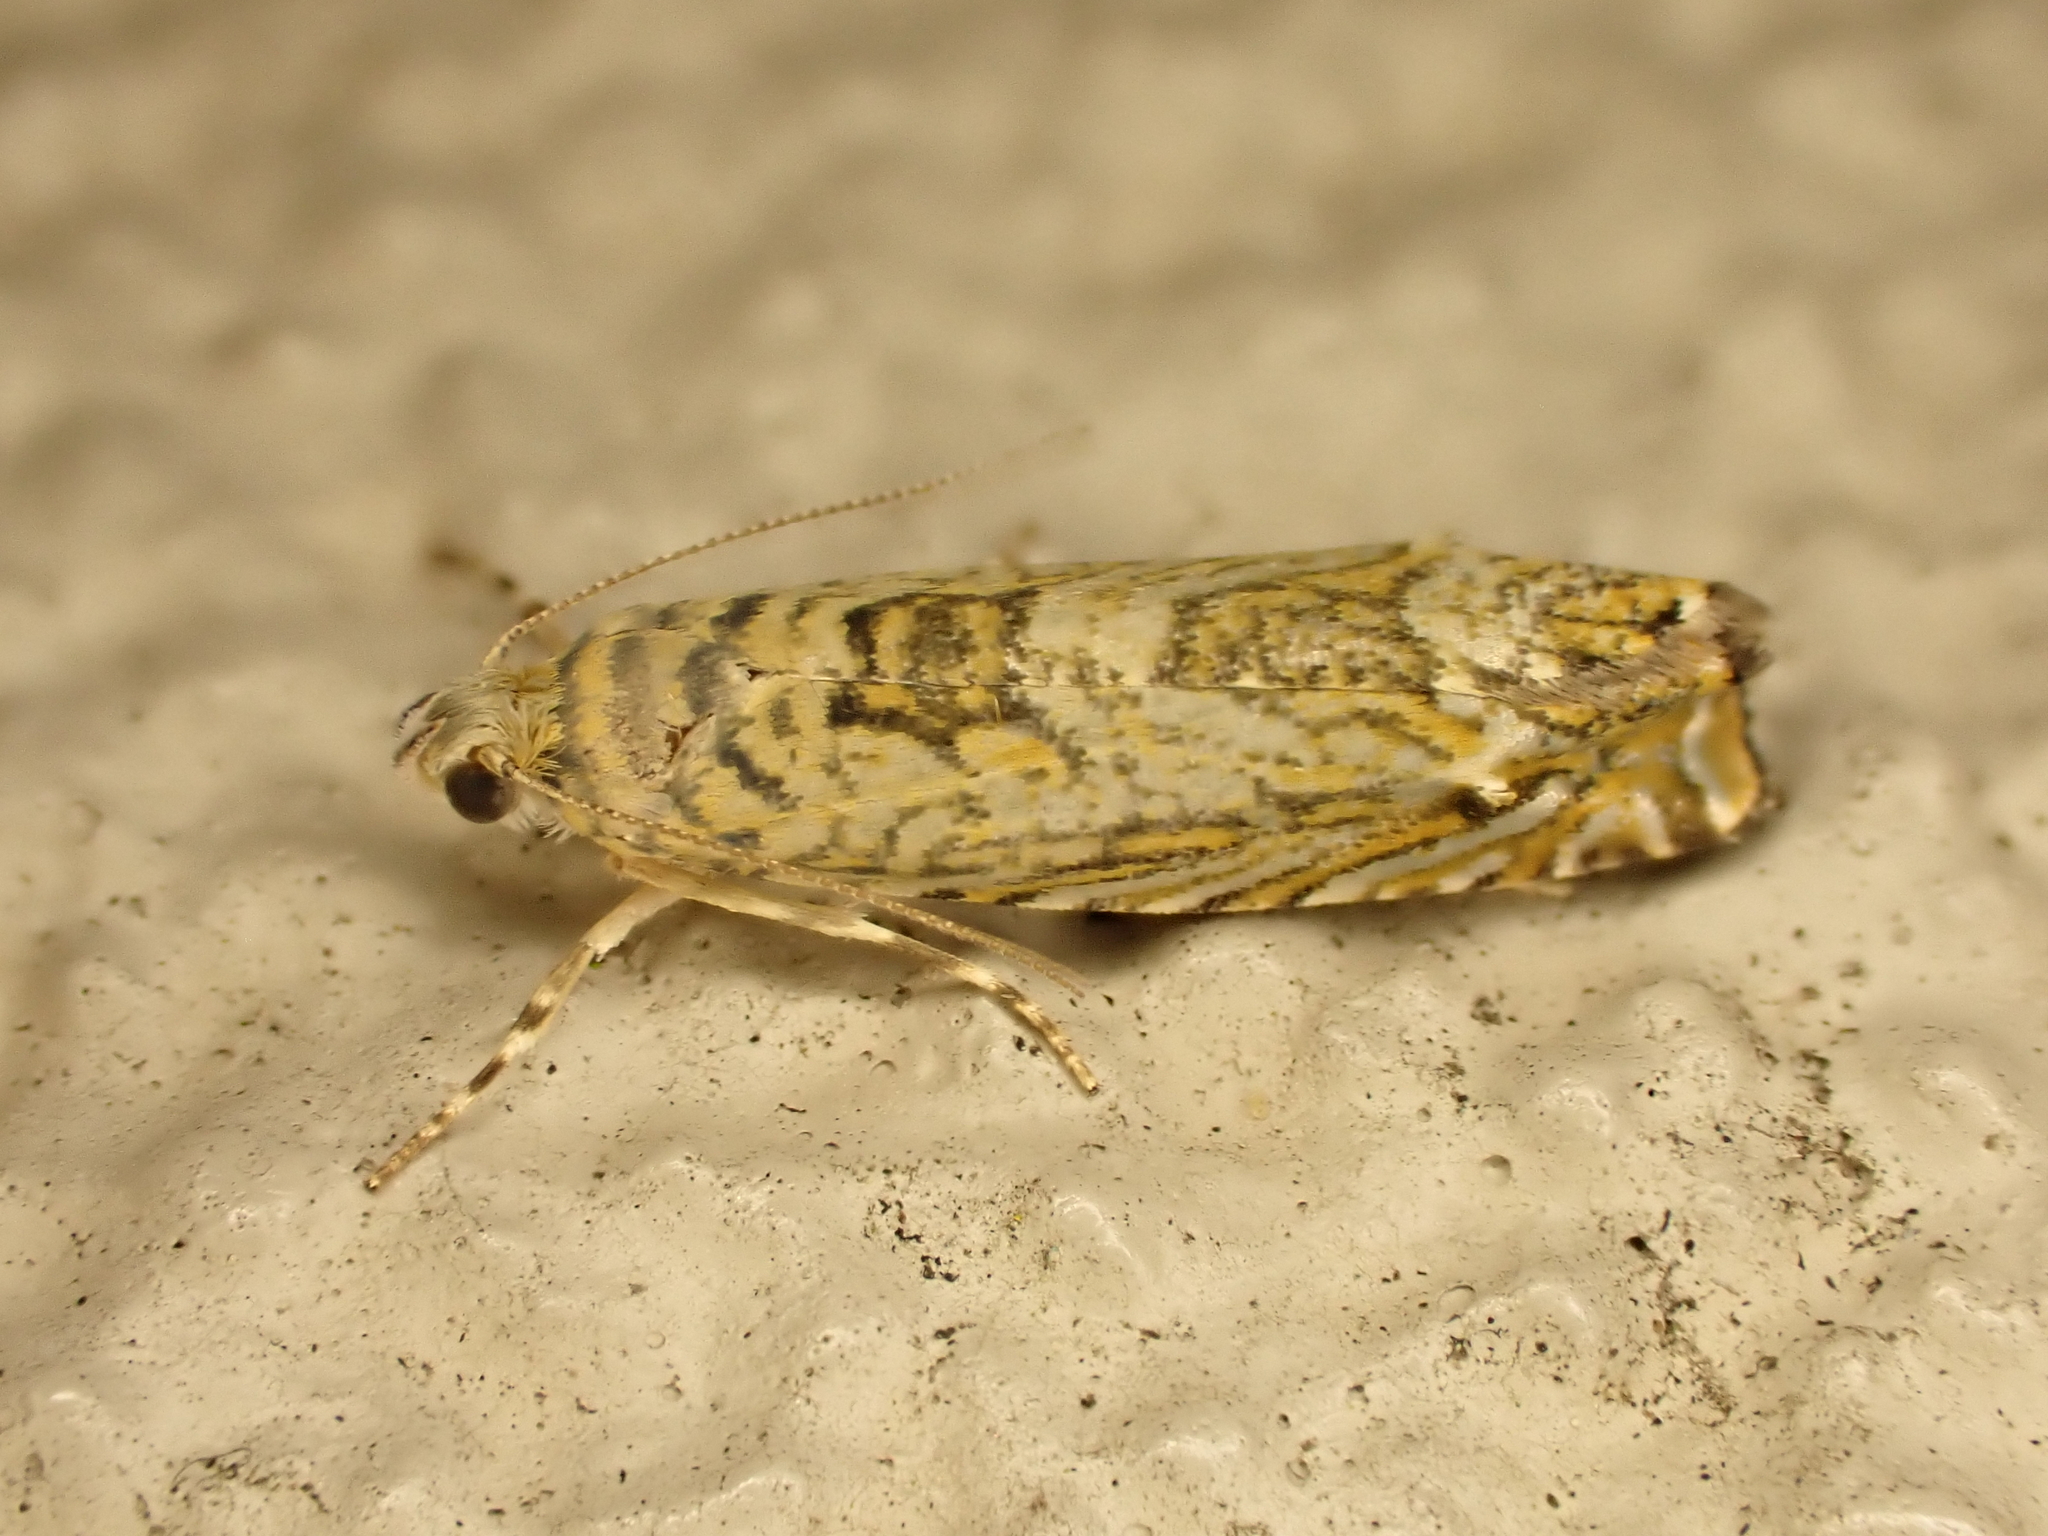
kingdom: Animalia
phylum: Arthropoda
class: Insecta
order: Lepidoptera
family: Plutellidae
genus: Doxophyrtis
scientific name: Doxophyrtis hydrocosma
